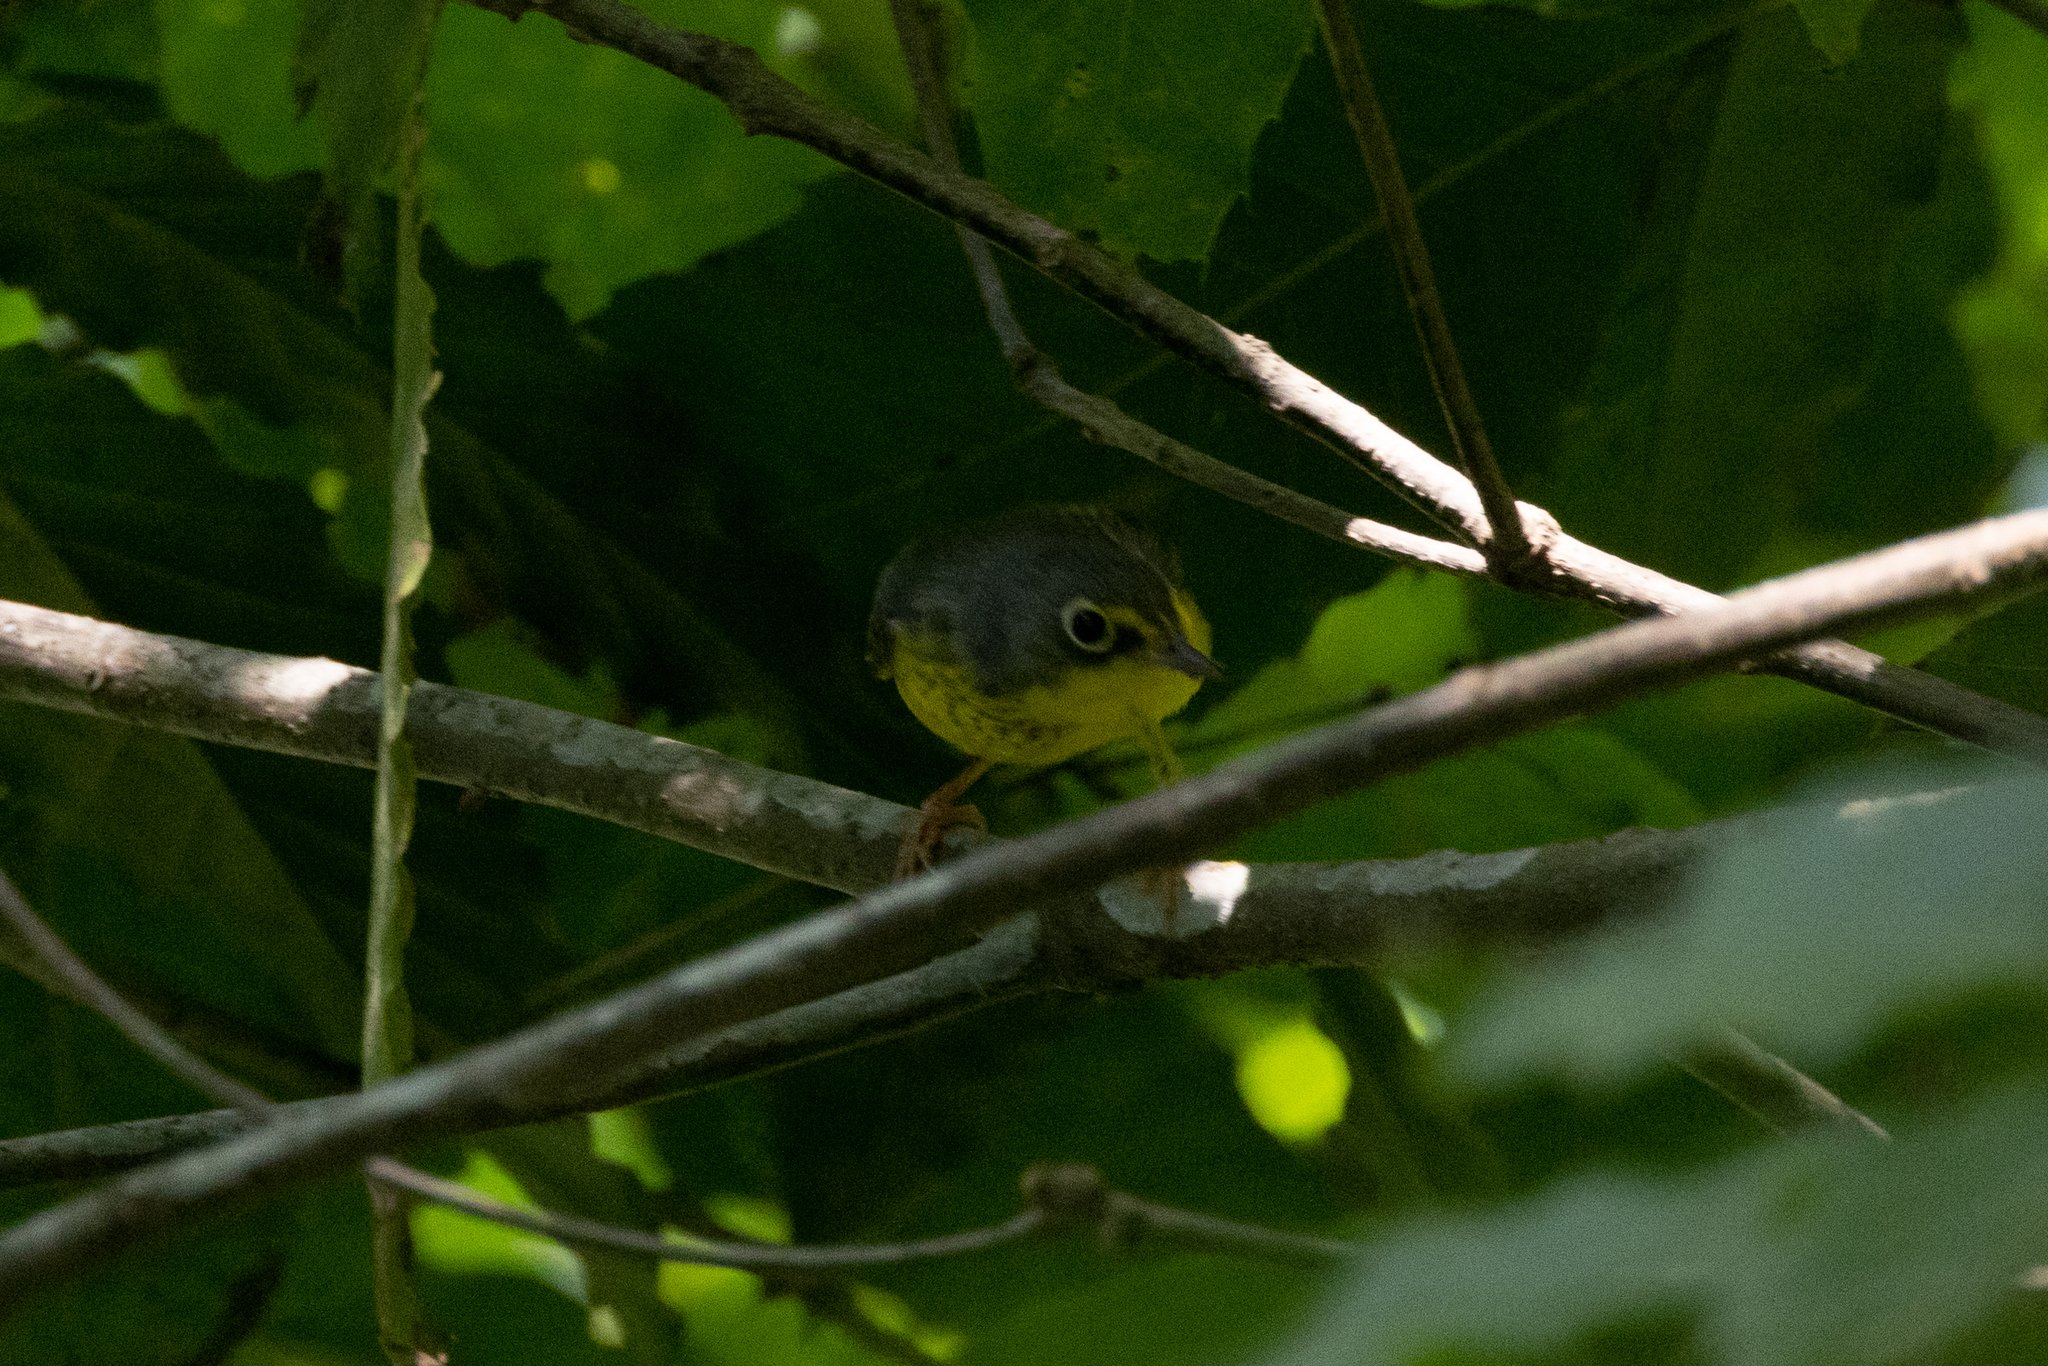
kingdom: Animalia
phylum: Chordata
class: Aves
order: Passeriformes
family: Parulidae
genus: Cardellina
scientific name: Cardellina canadensis
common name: Canada warbler
